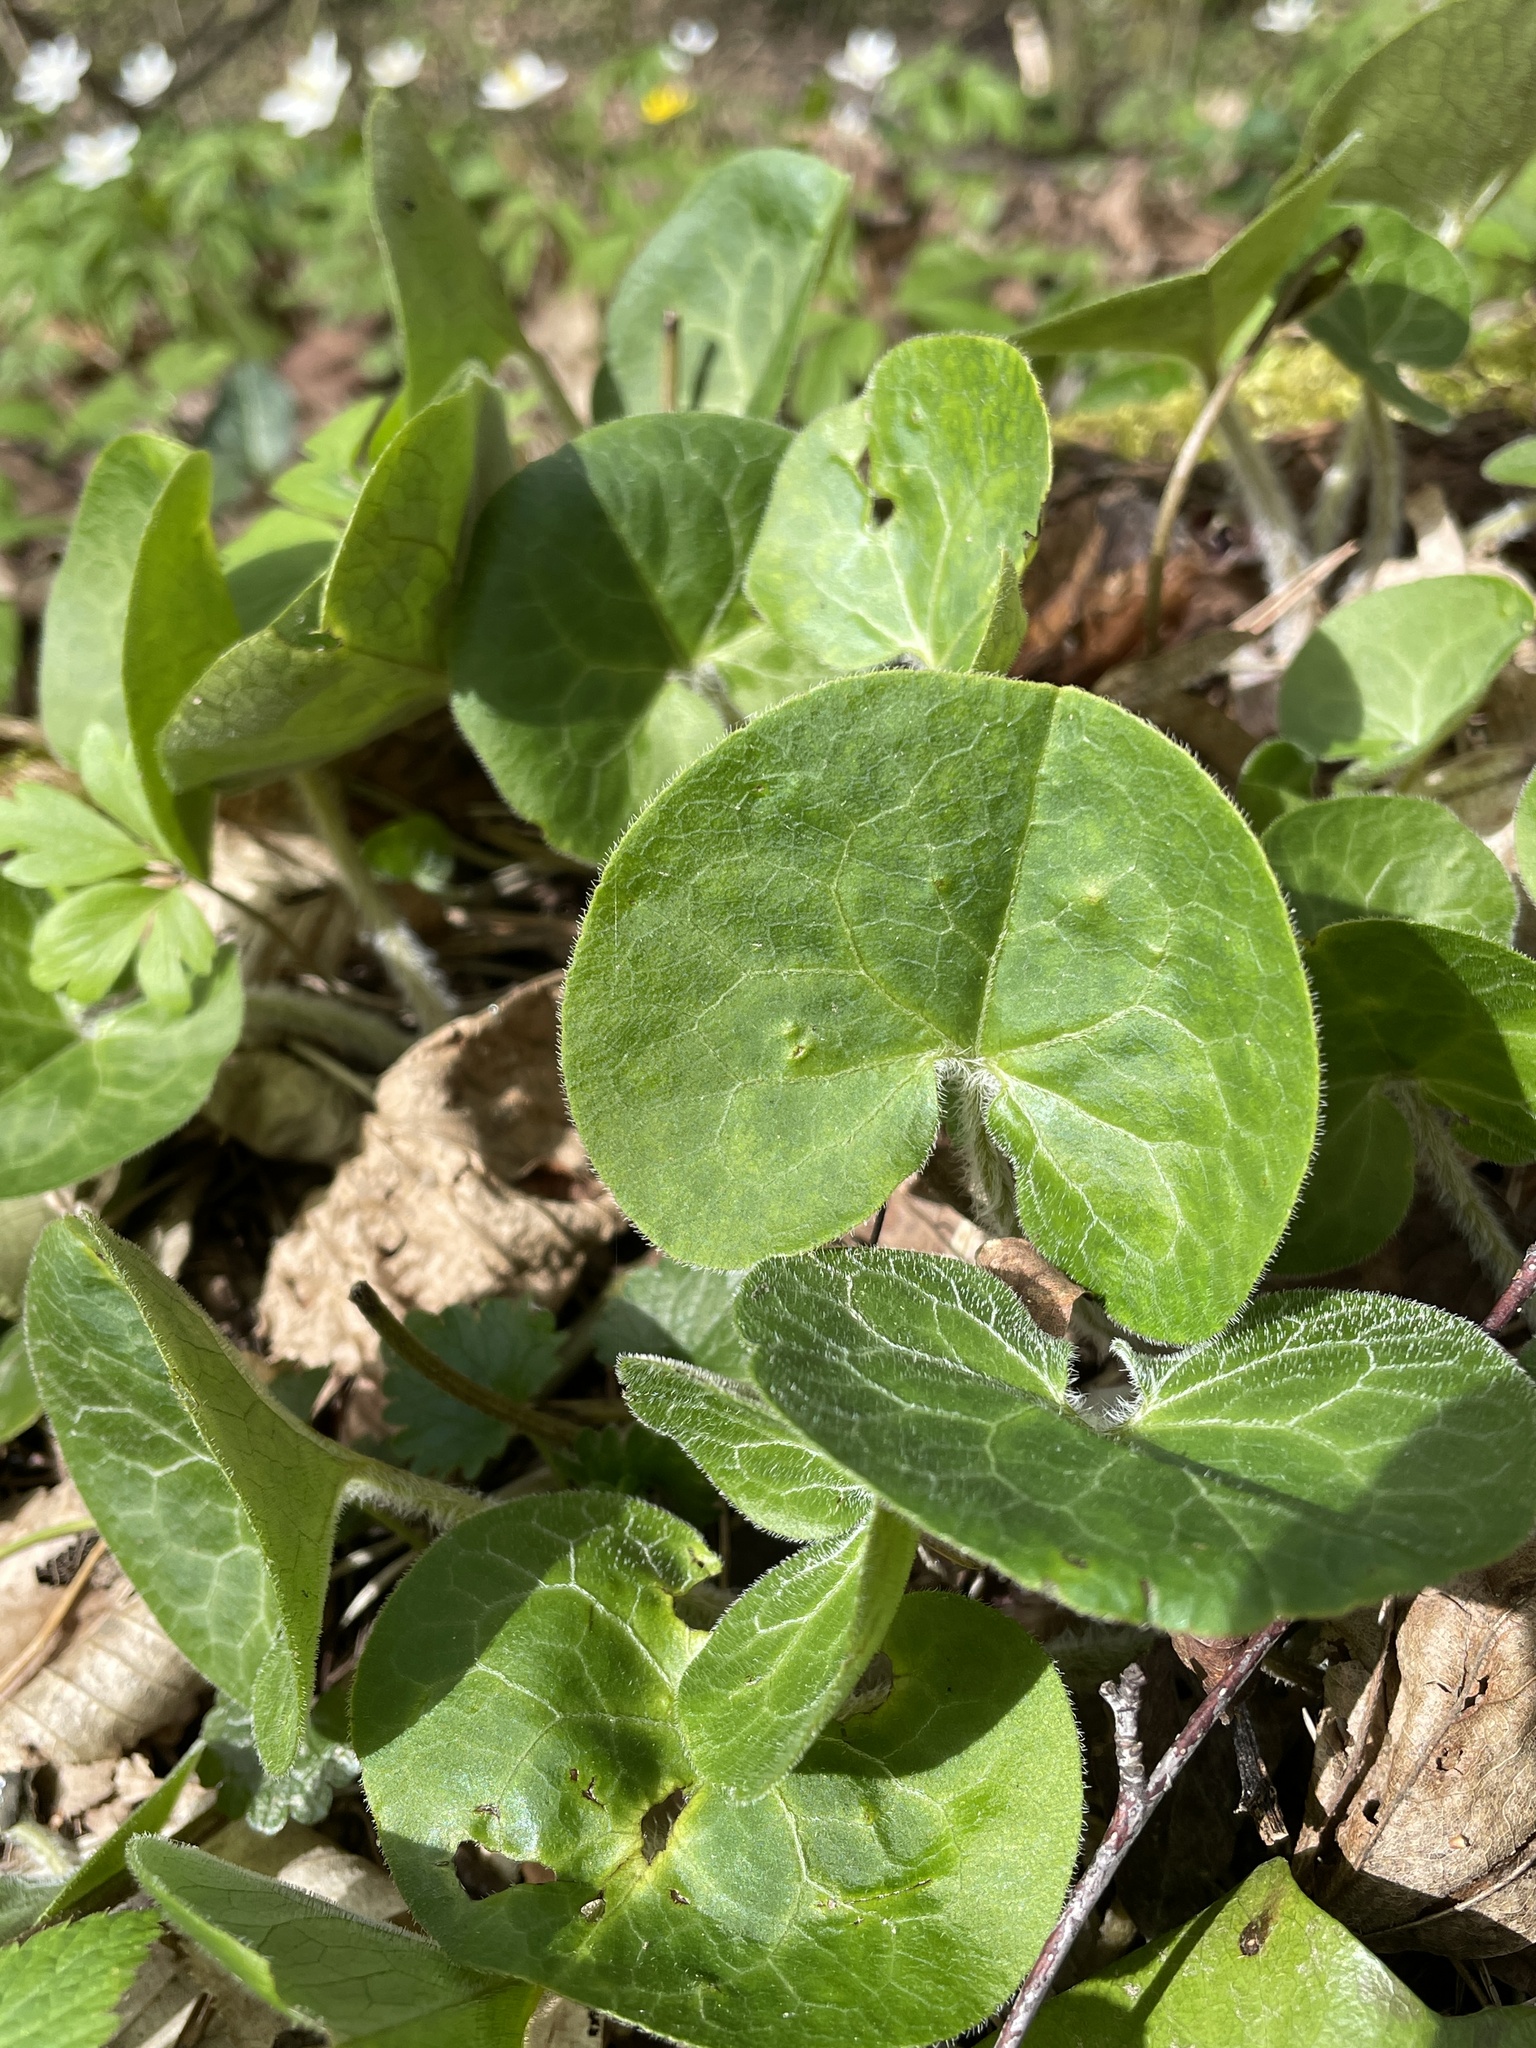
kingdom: Plantae
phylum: Tracheophyta
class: Magnoliopsida
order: Piperales
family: Aristolochiaceae
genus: Asarum
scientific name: Asarum europaeum
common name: Asarabacca
